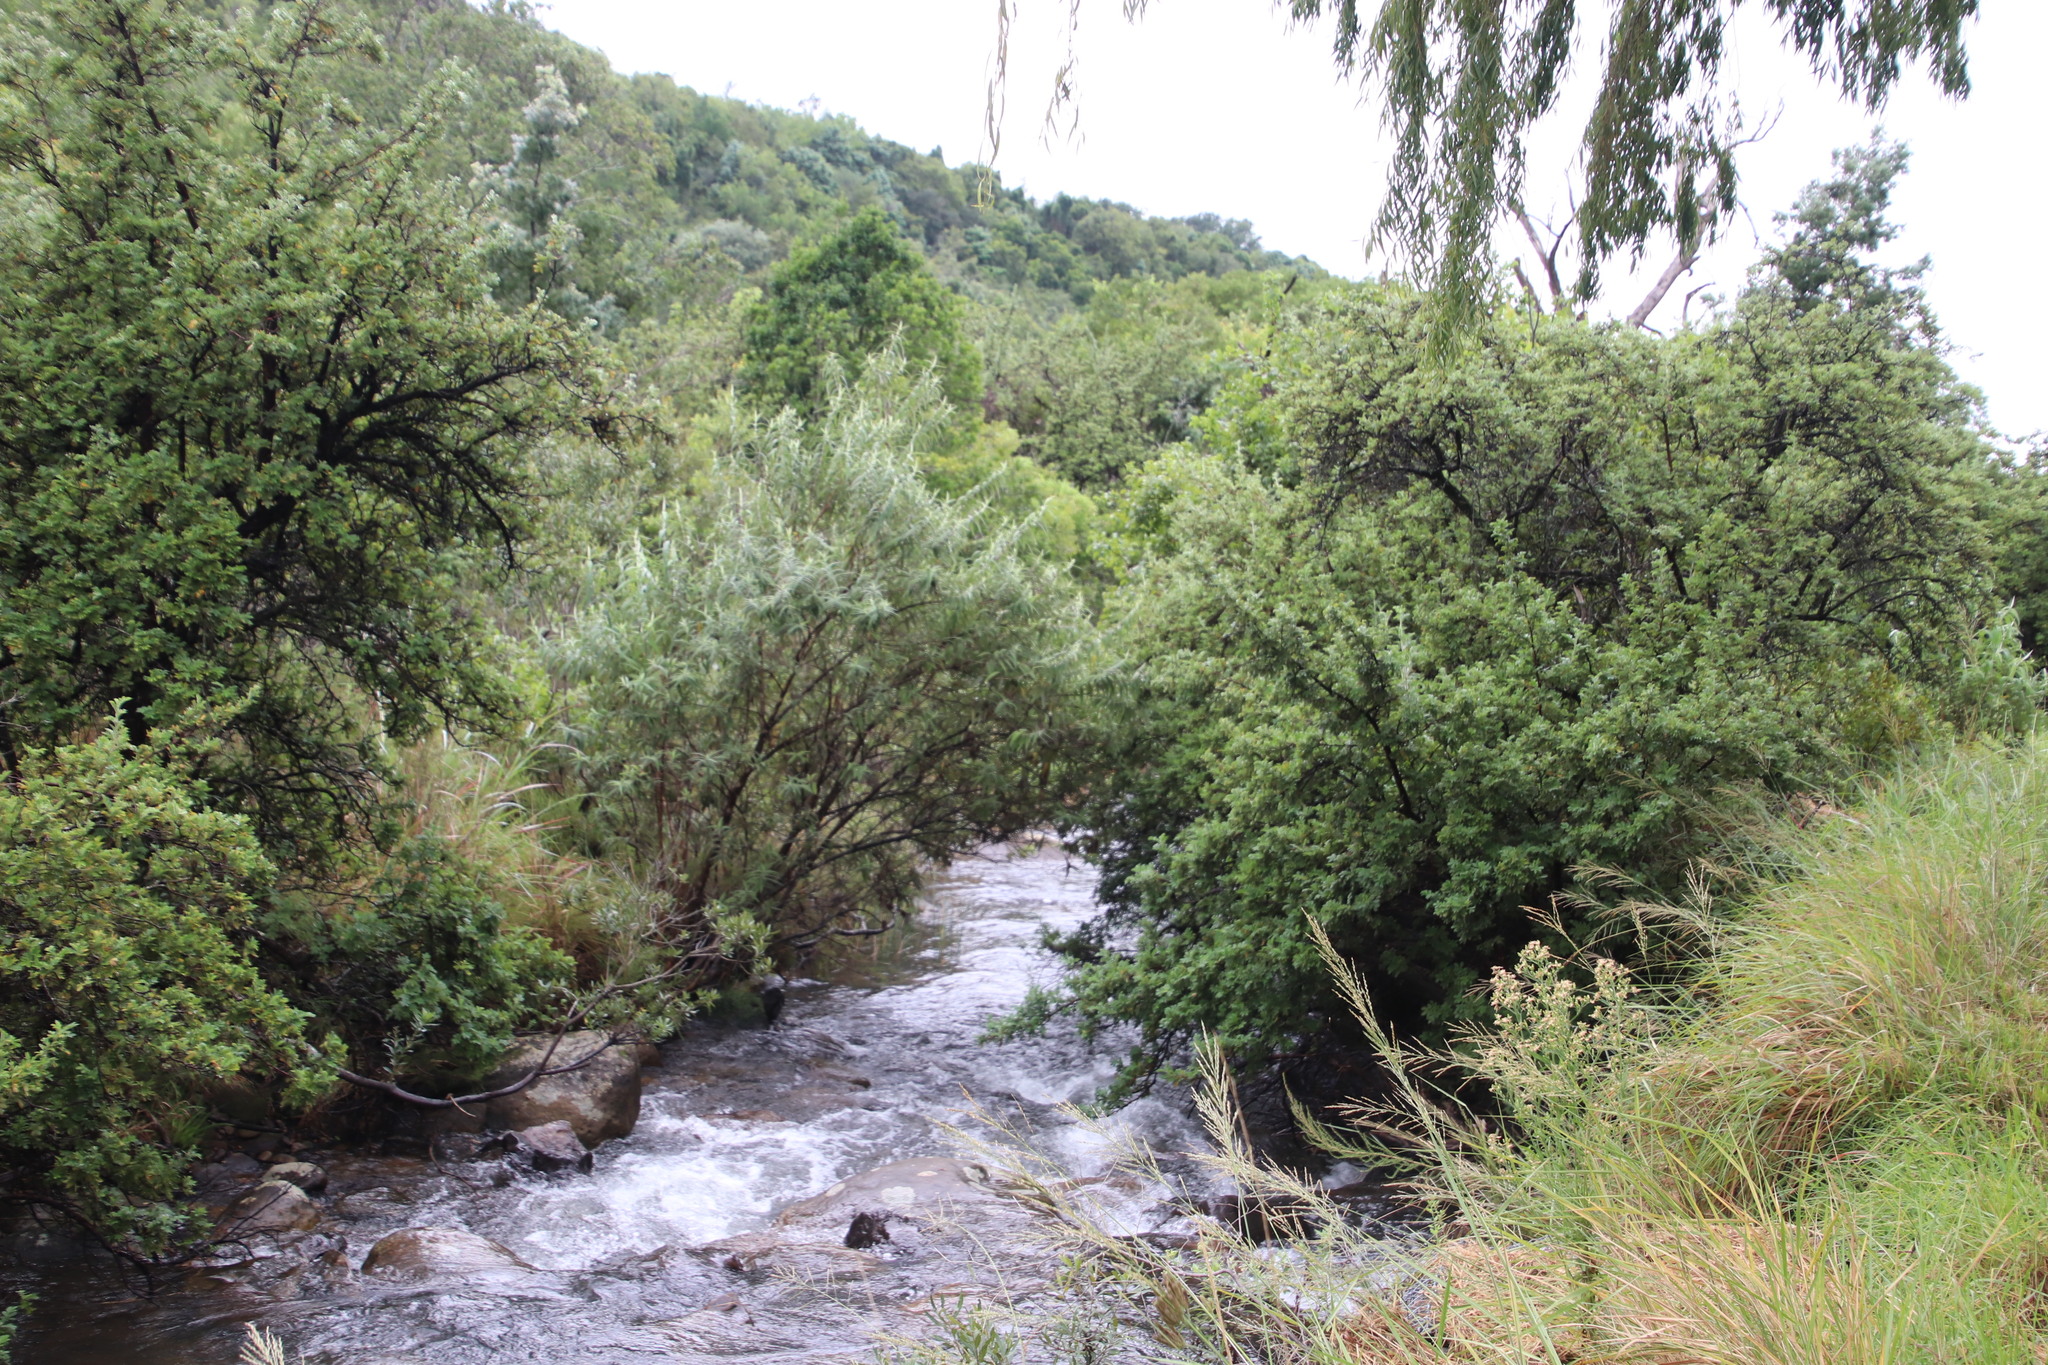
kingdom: Plantae
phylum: Tracheophyta
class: Magnoliopsida
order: Lamiales
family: Scrophulariaceae
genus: Buddleja
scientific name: Buddleja salviifolia
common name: Sagewood
